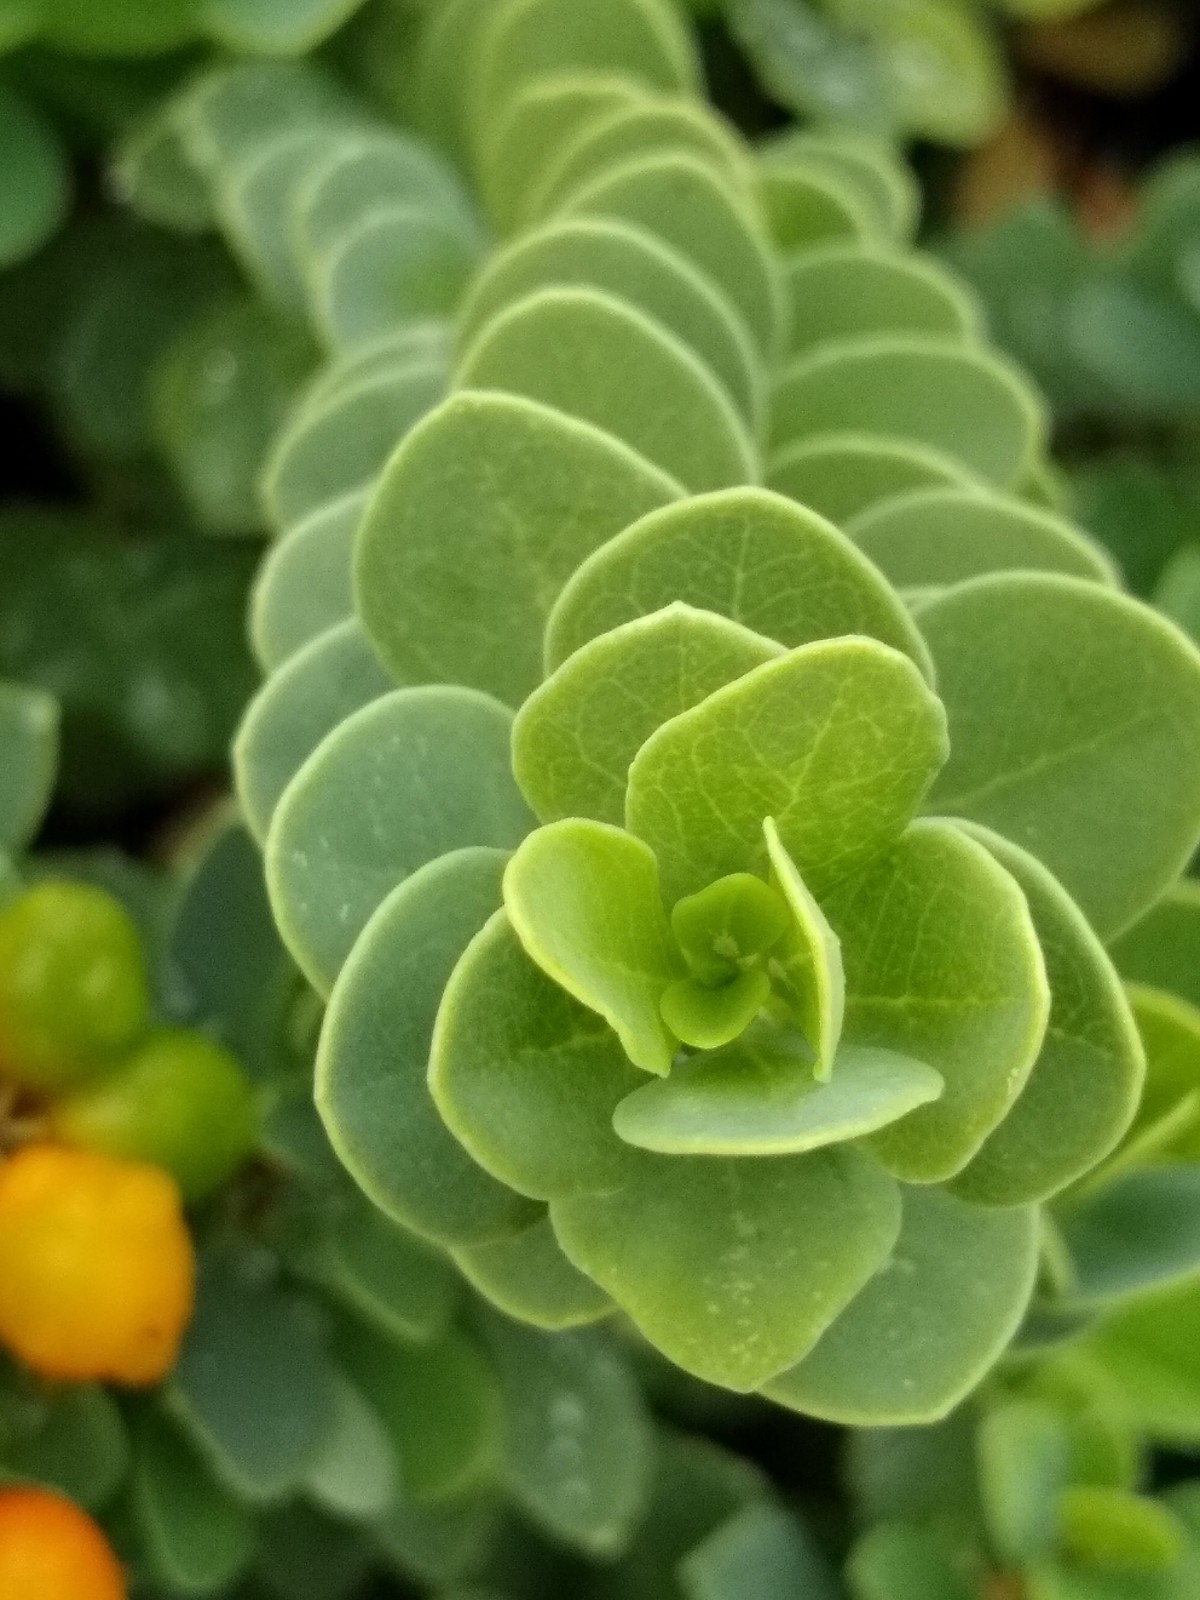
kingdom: Plantae
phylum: Tracheophyta
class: Magnoliopsida
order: Malvales
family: Thymelaeaceae
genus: Wikstroemia
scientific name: Wikstroemia uva-ursi
